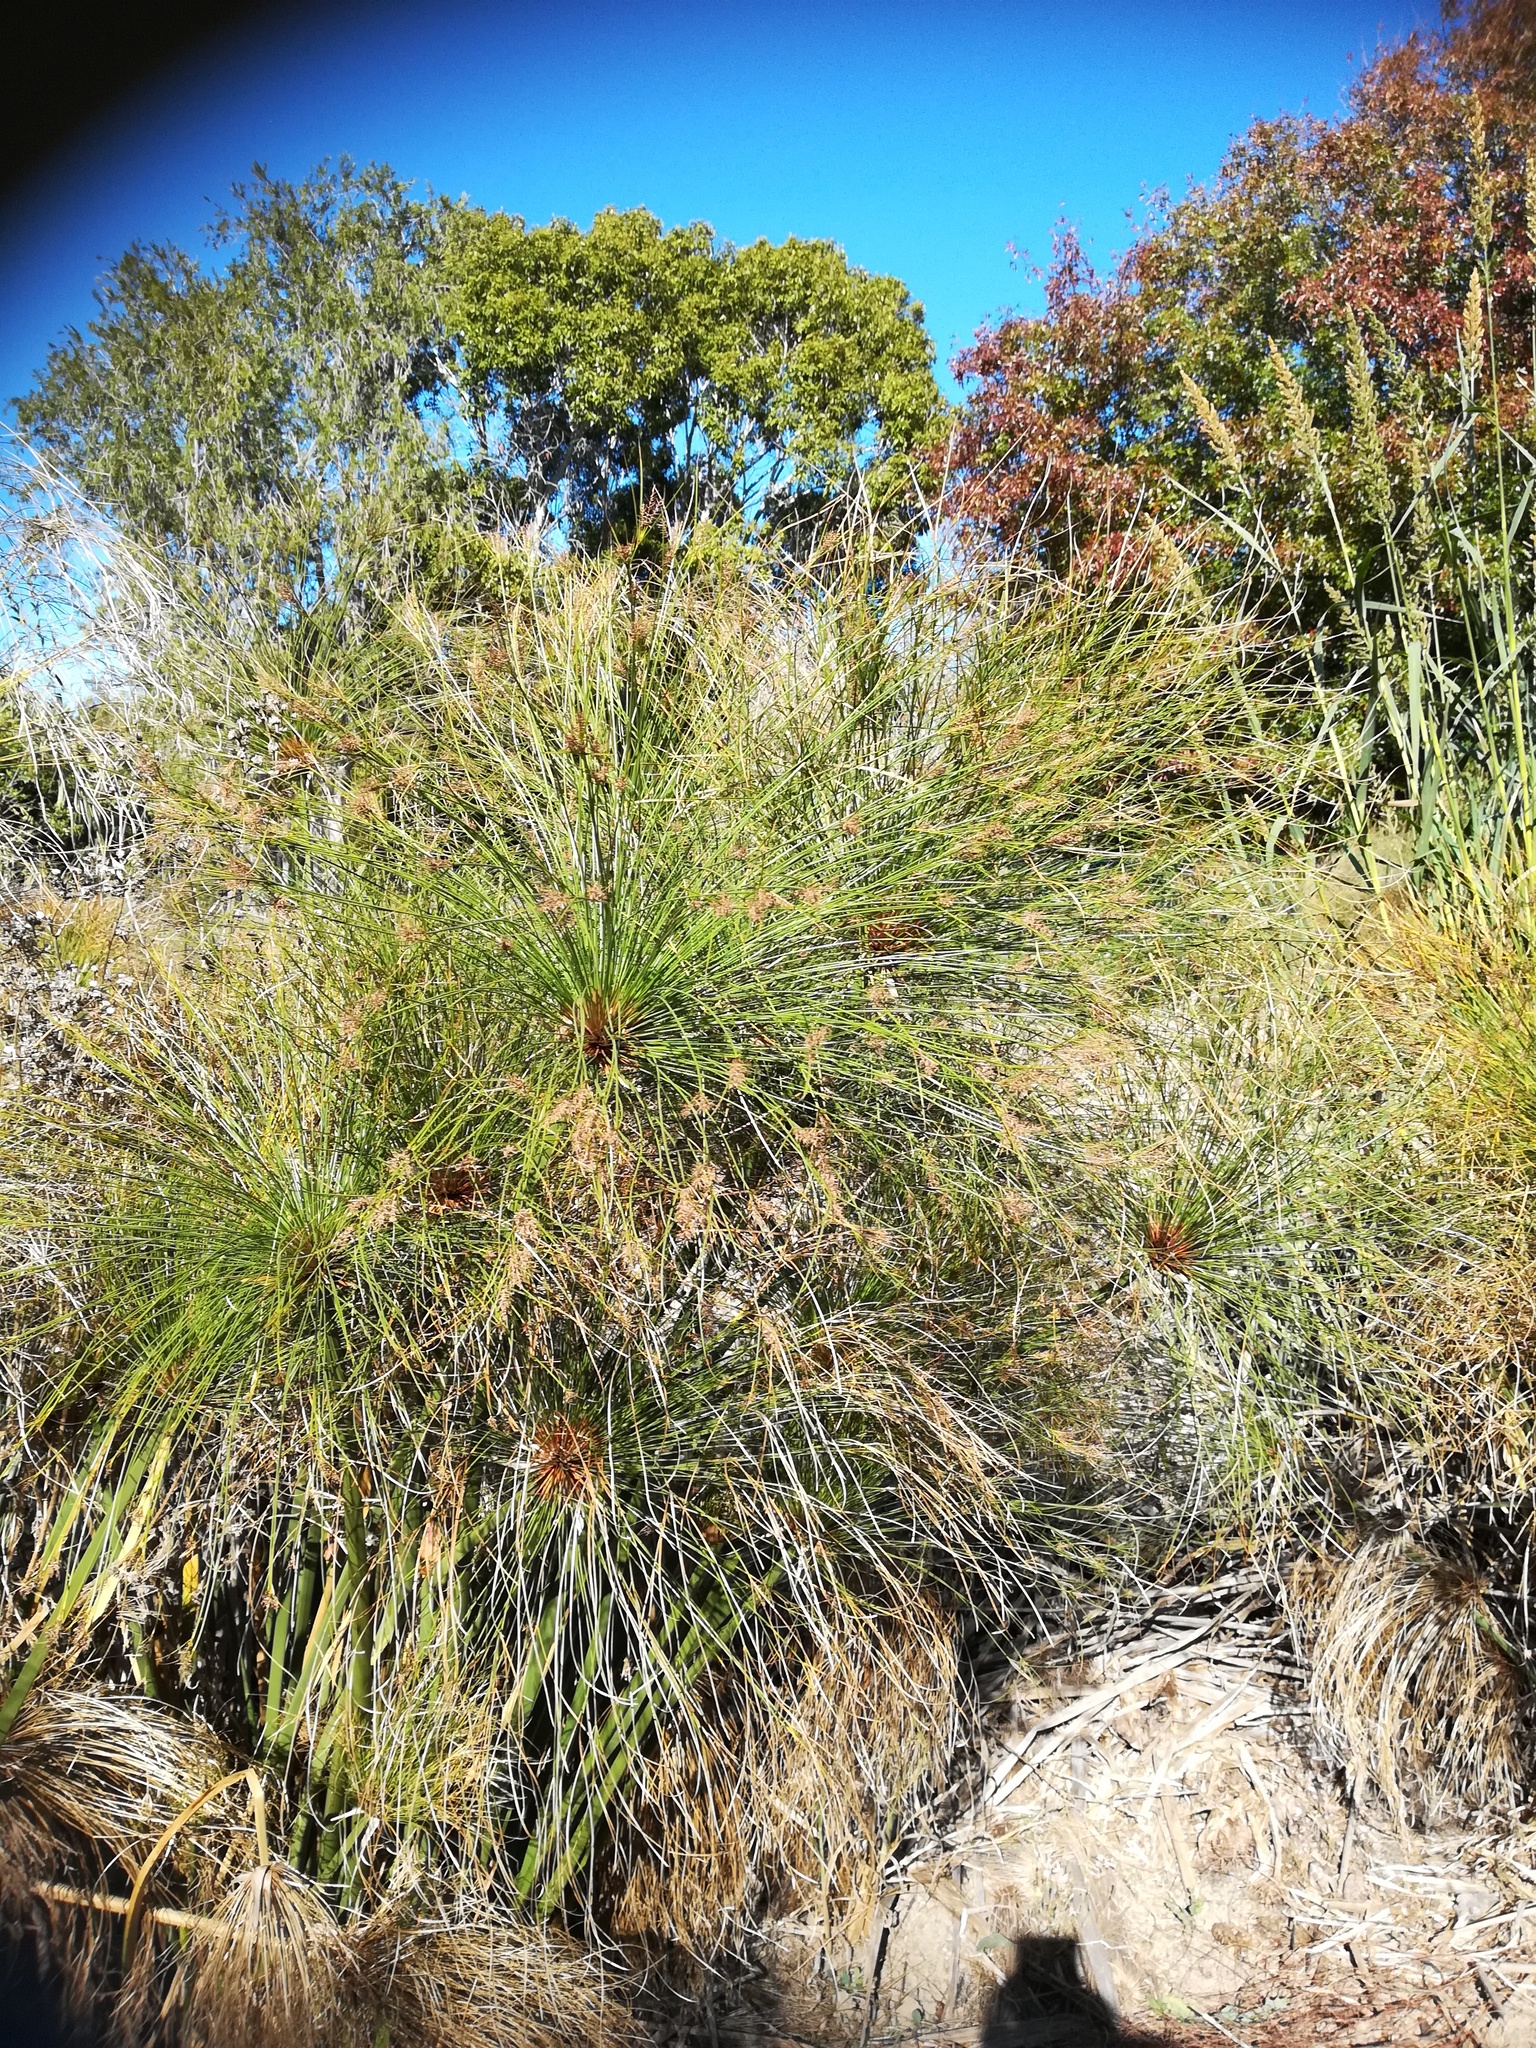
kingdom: Plantae
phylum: Tracheophyta
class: Liliopsida
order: Poales
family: Cyperaceae
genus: Cyperus
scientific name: Cyperus papyrus
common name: Papyrus
